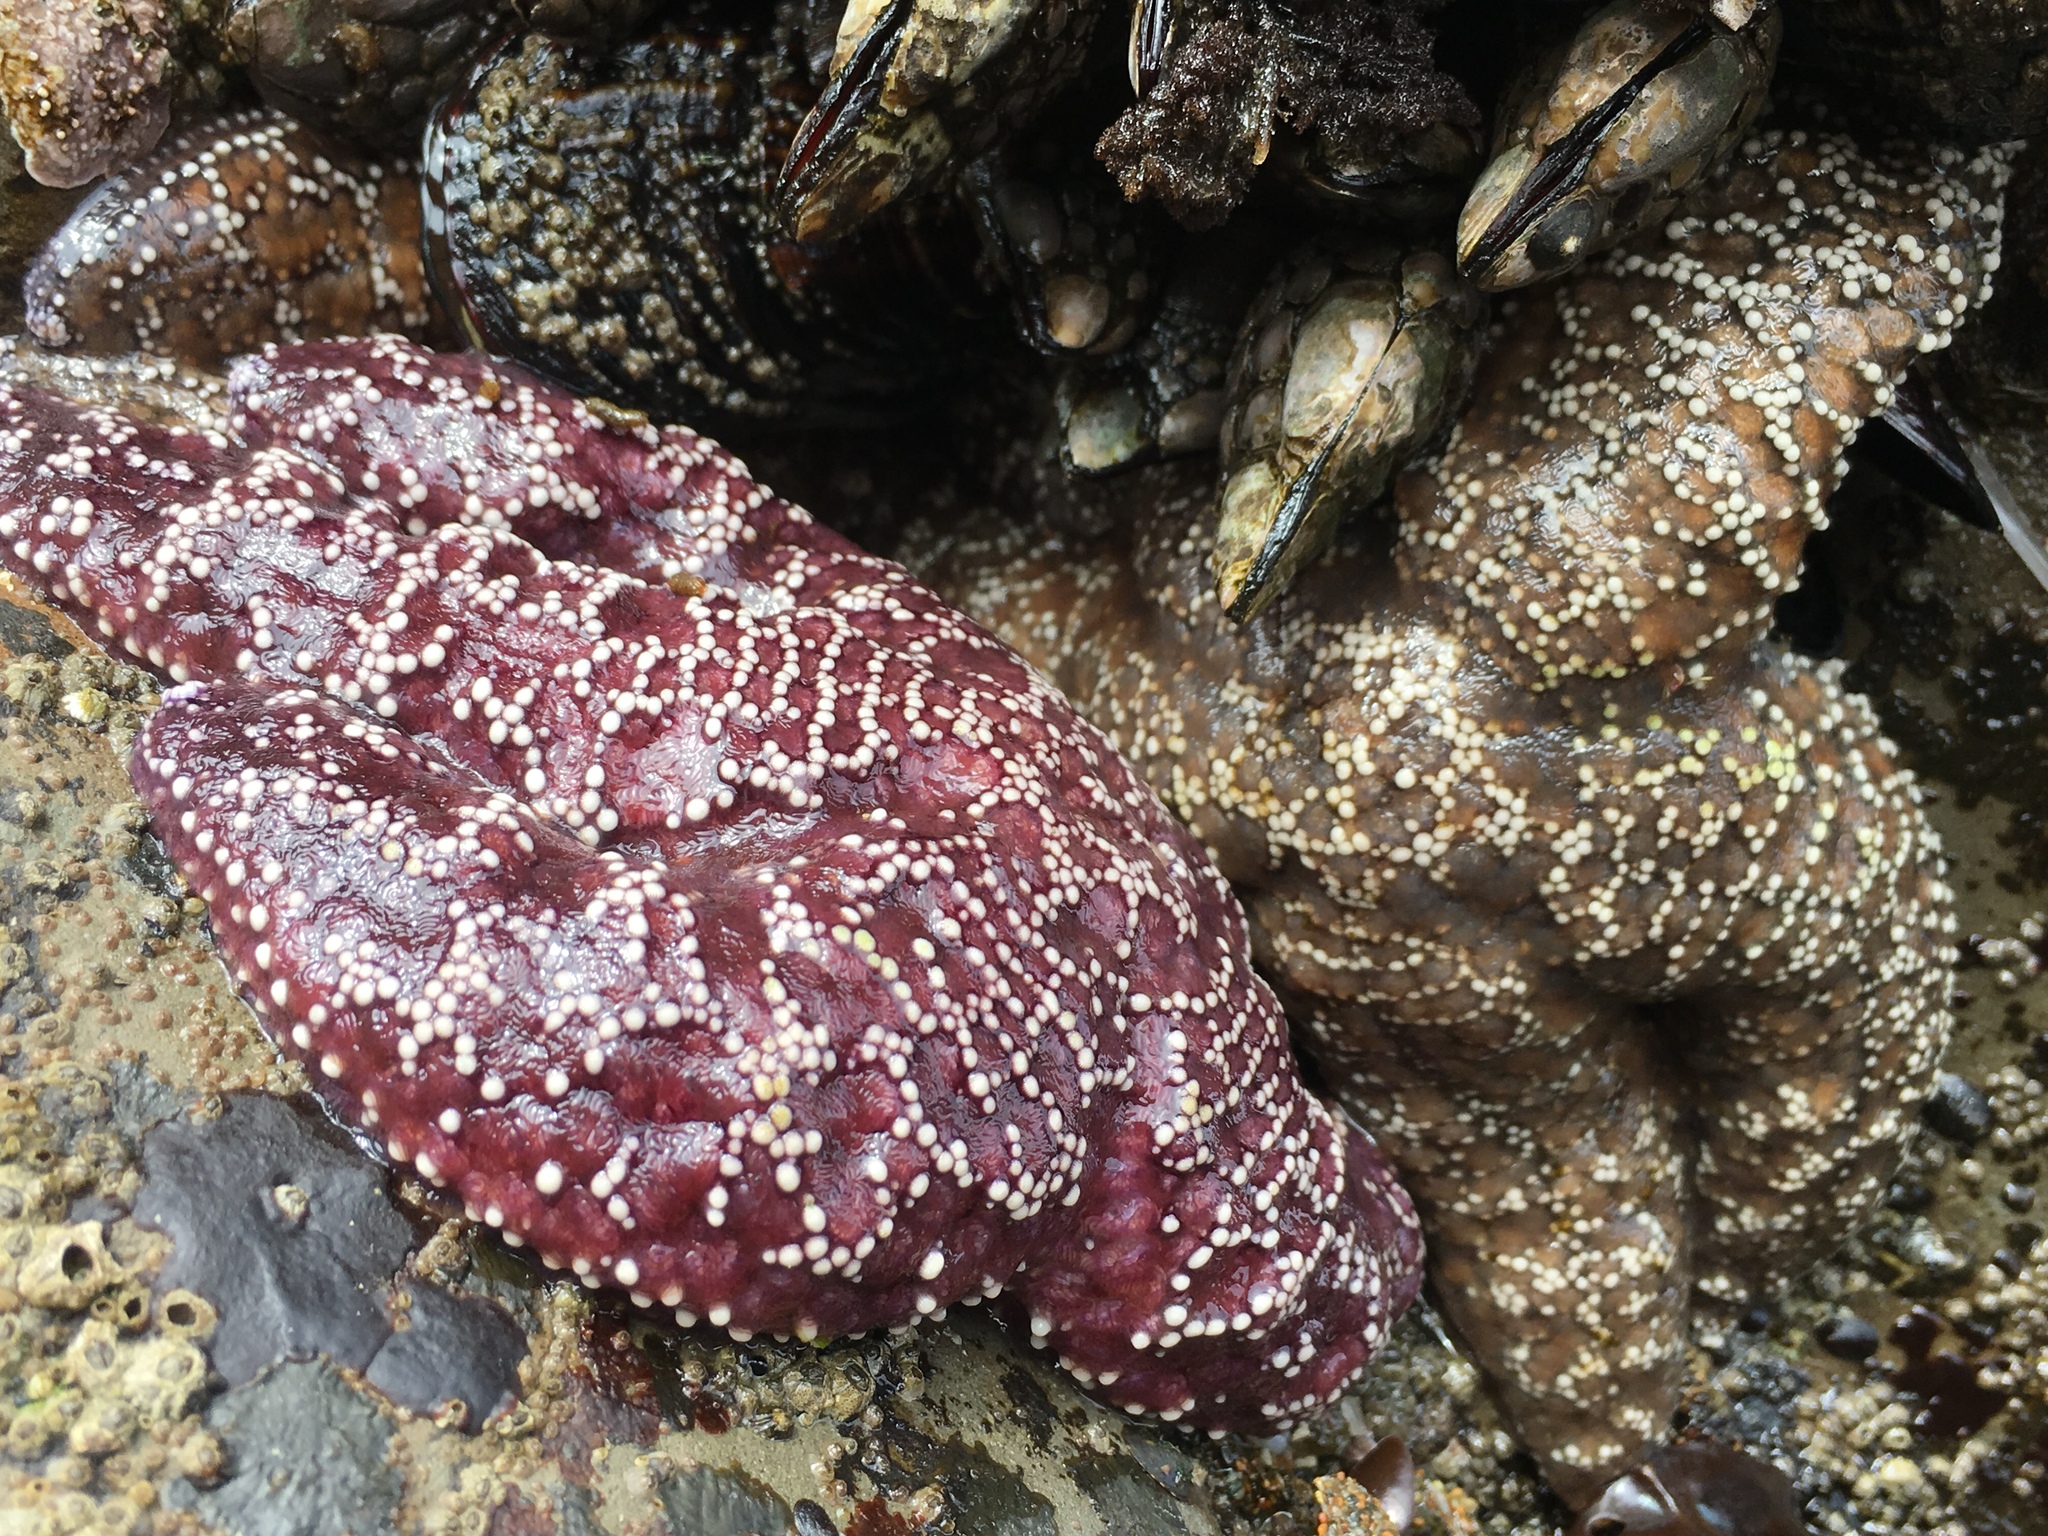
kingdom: Animalia
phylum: Echinodermata
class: Asteroidea
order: Forcipulatida
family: Asteriidae
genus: Pisaster
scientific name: Pisaster ochraceus
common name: Ochre stars
